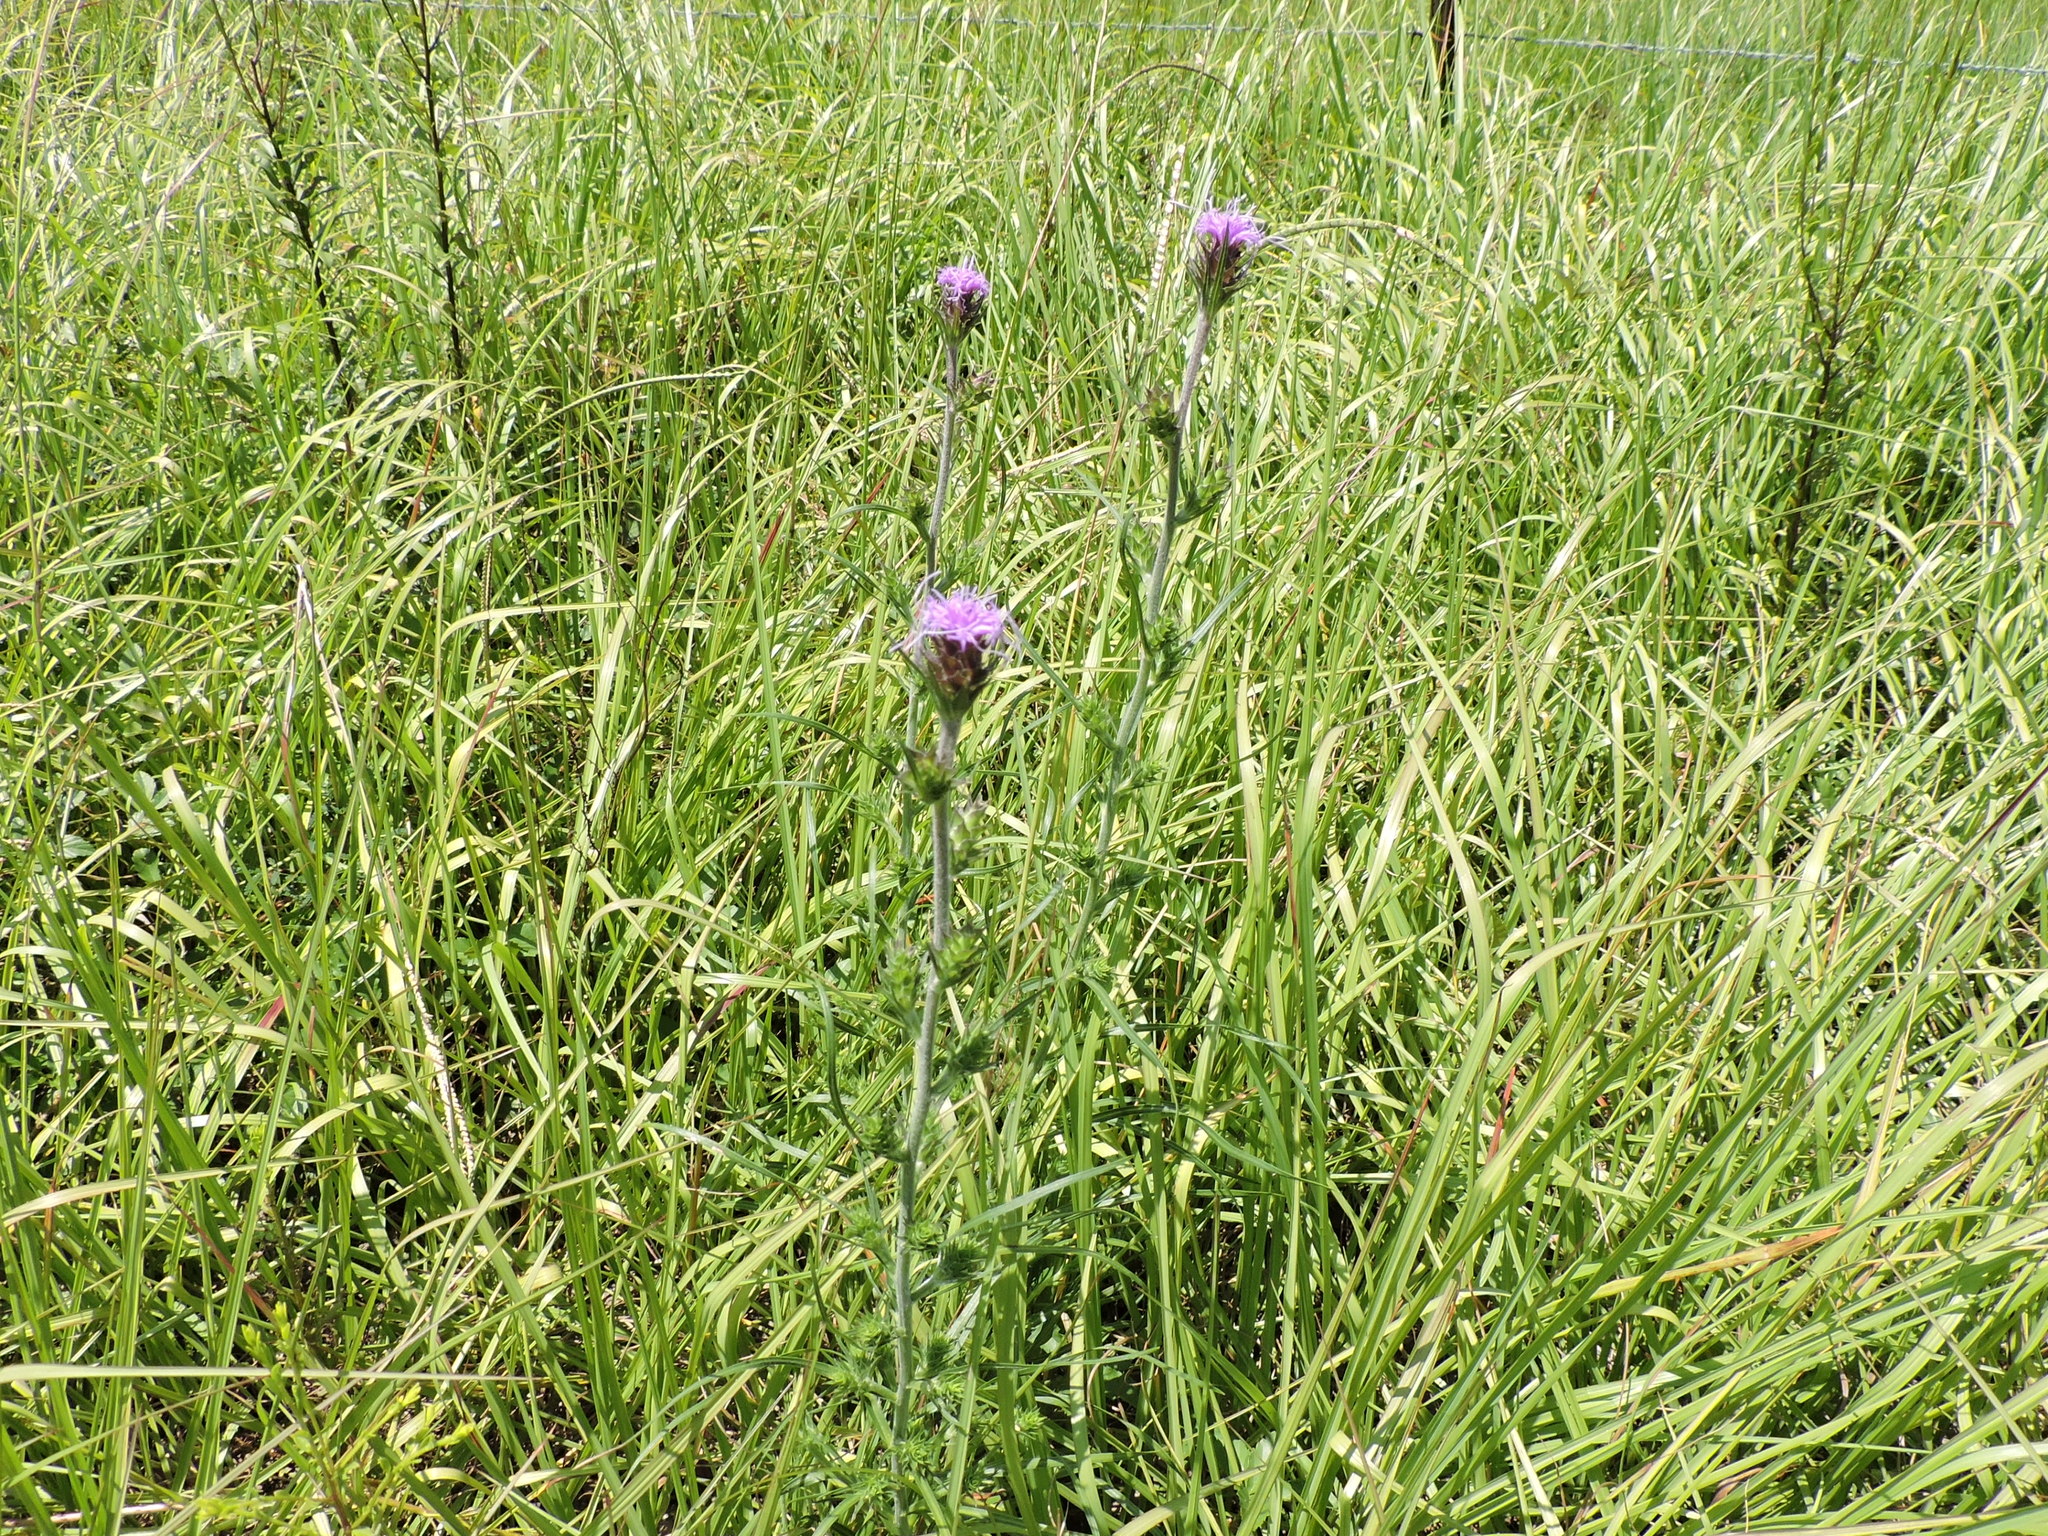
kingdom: Plantae
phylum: Tracheophyta
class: Magnoliopsida
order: Asterales
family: Asteraceae
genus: Liatris
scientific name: Liatris squarrosa
